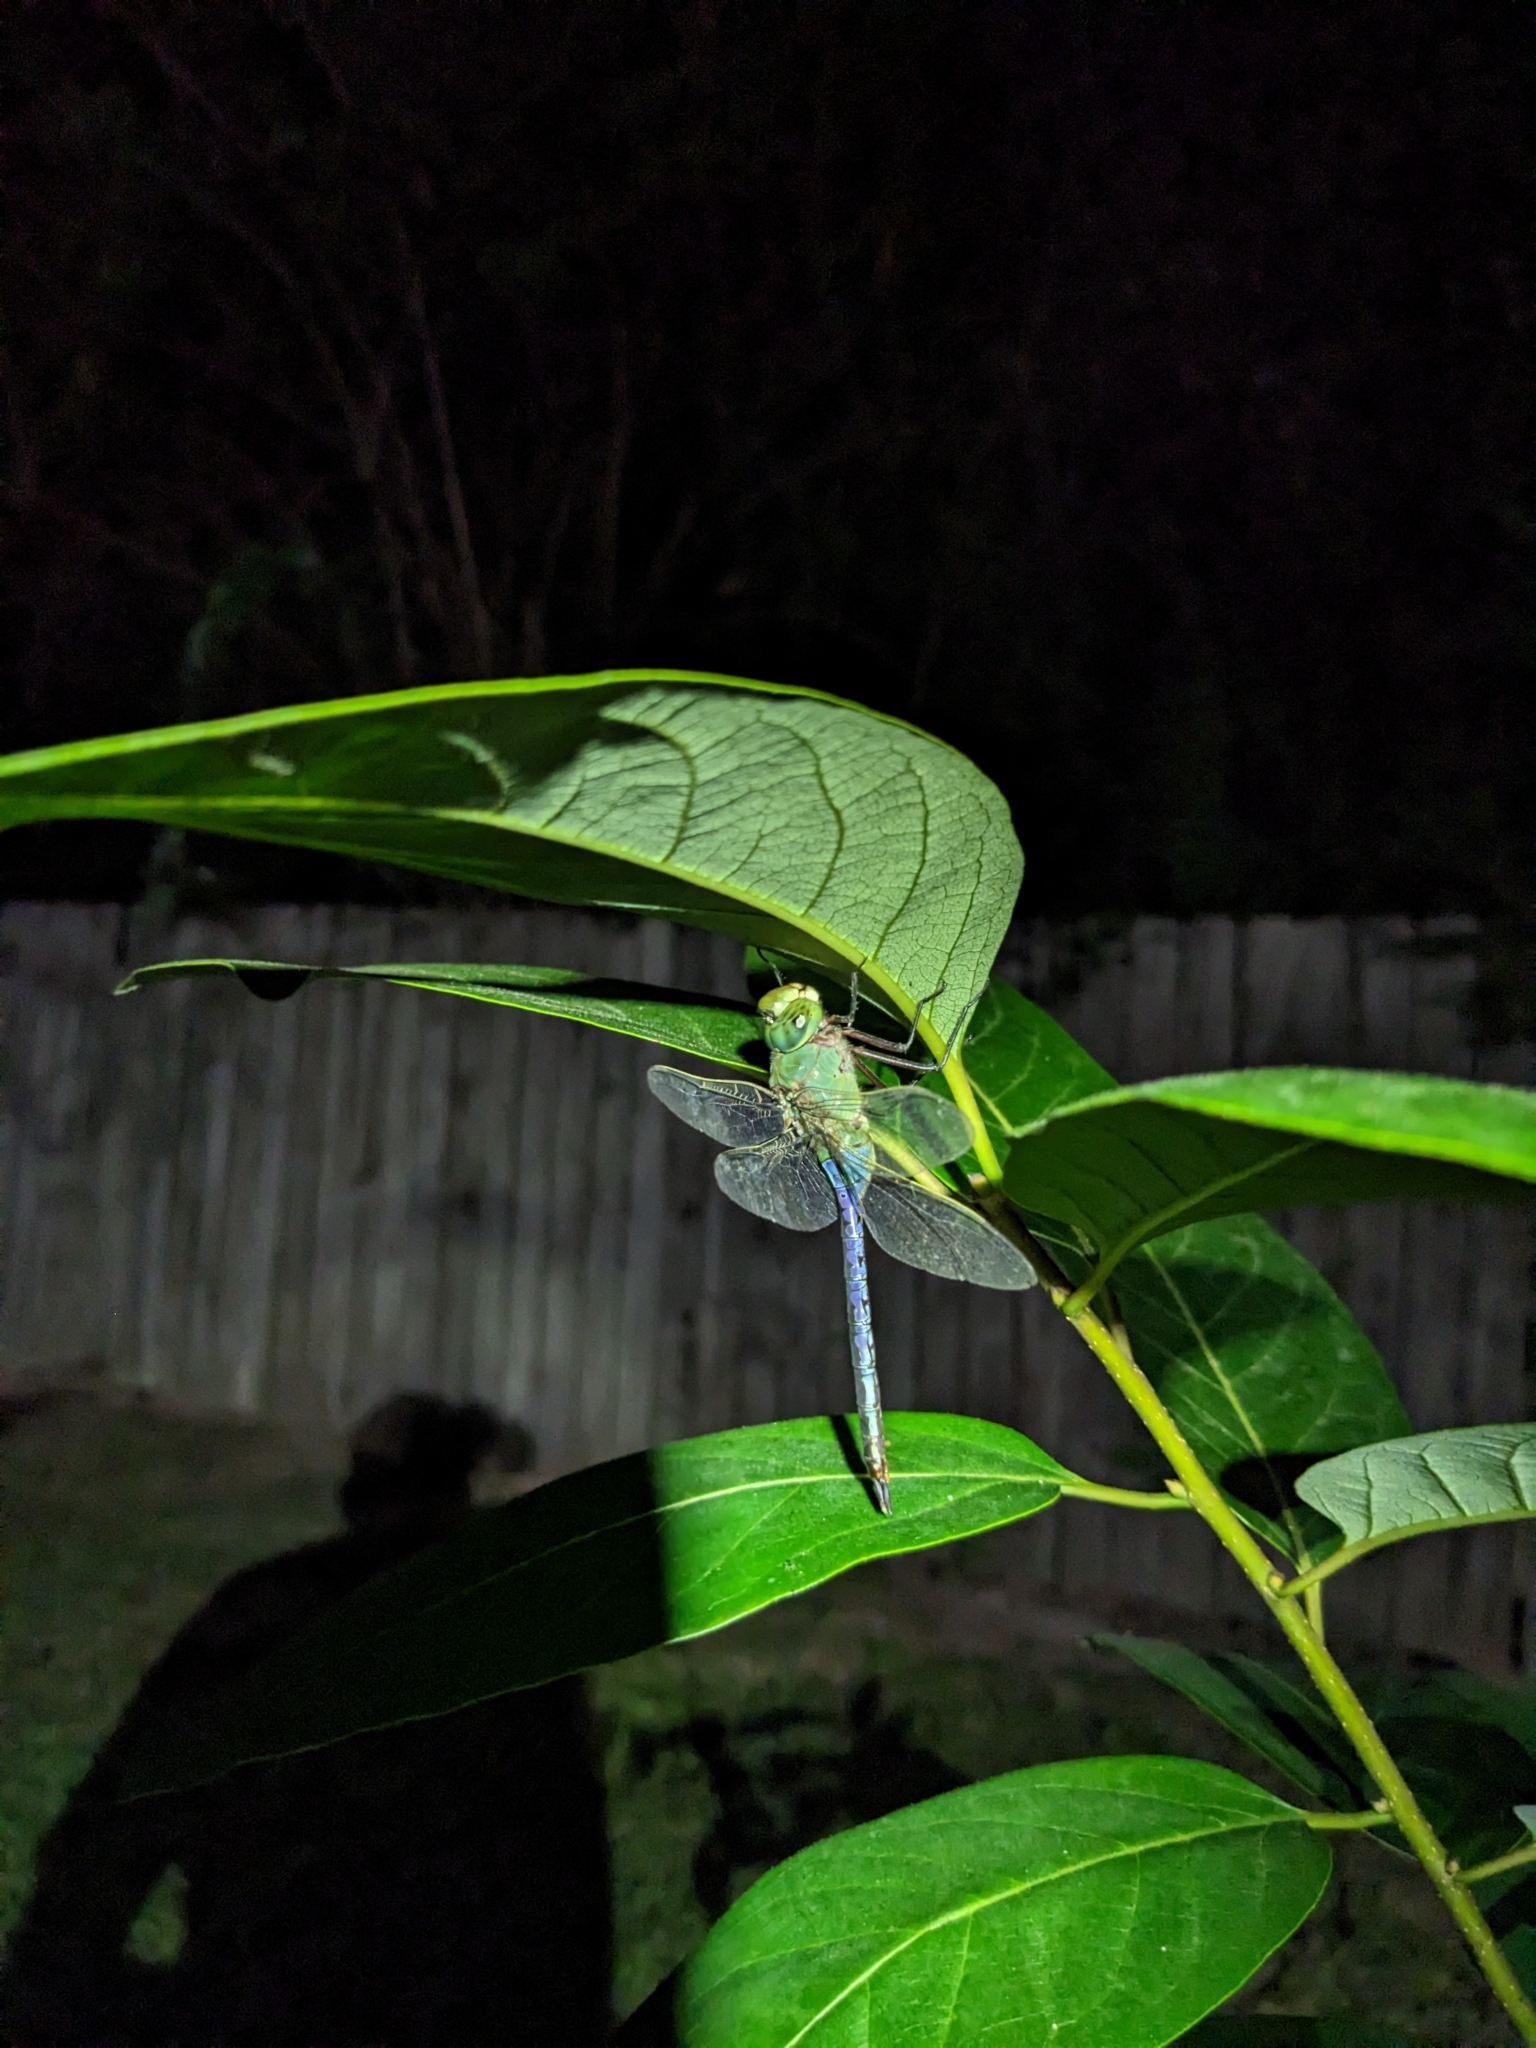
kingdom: Animalia
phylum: Arthropoda
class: Insecta
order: Odonata
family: Aeshnidae
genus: Anax
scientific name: Anax junius
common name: Common green darner
